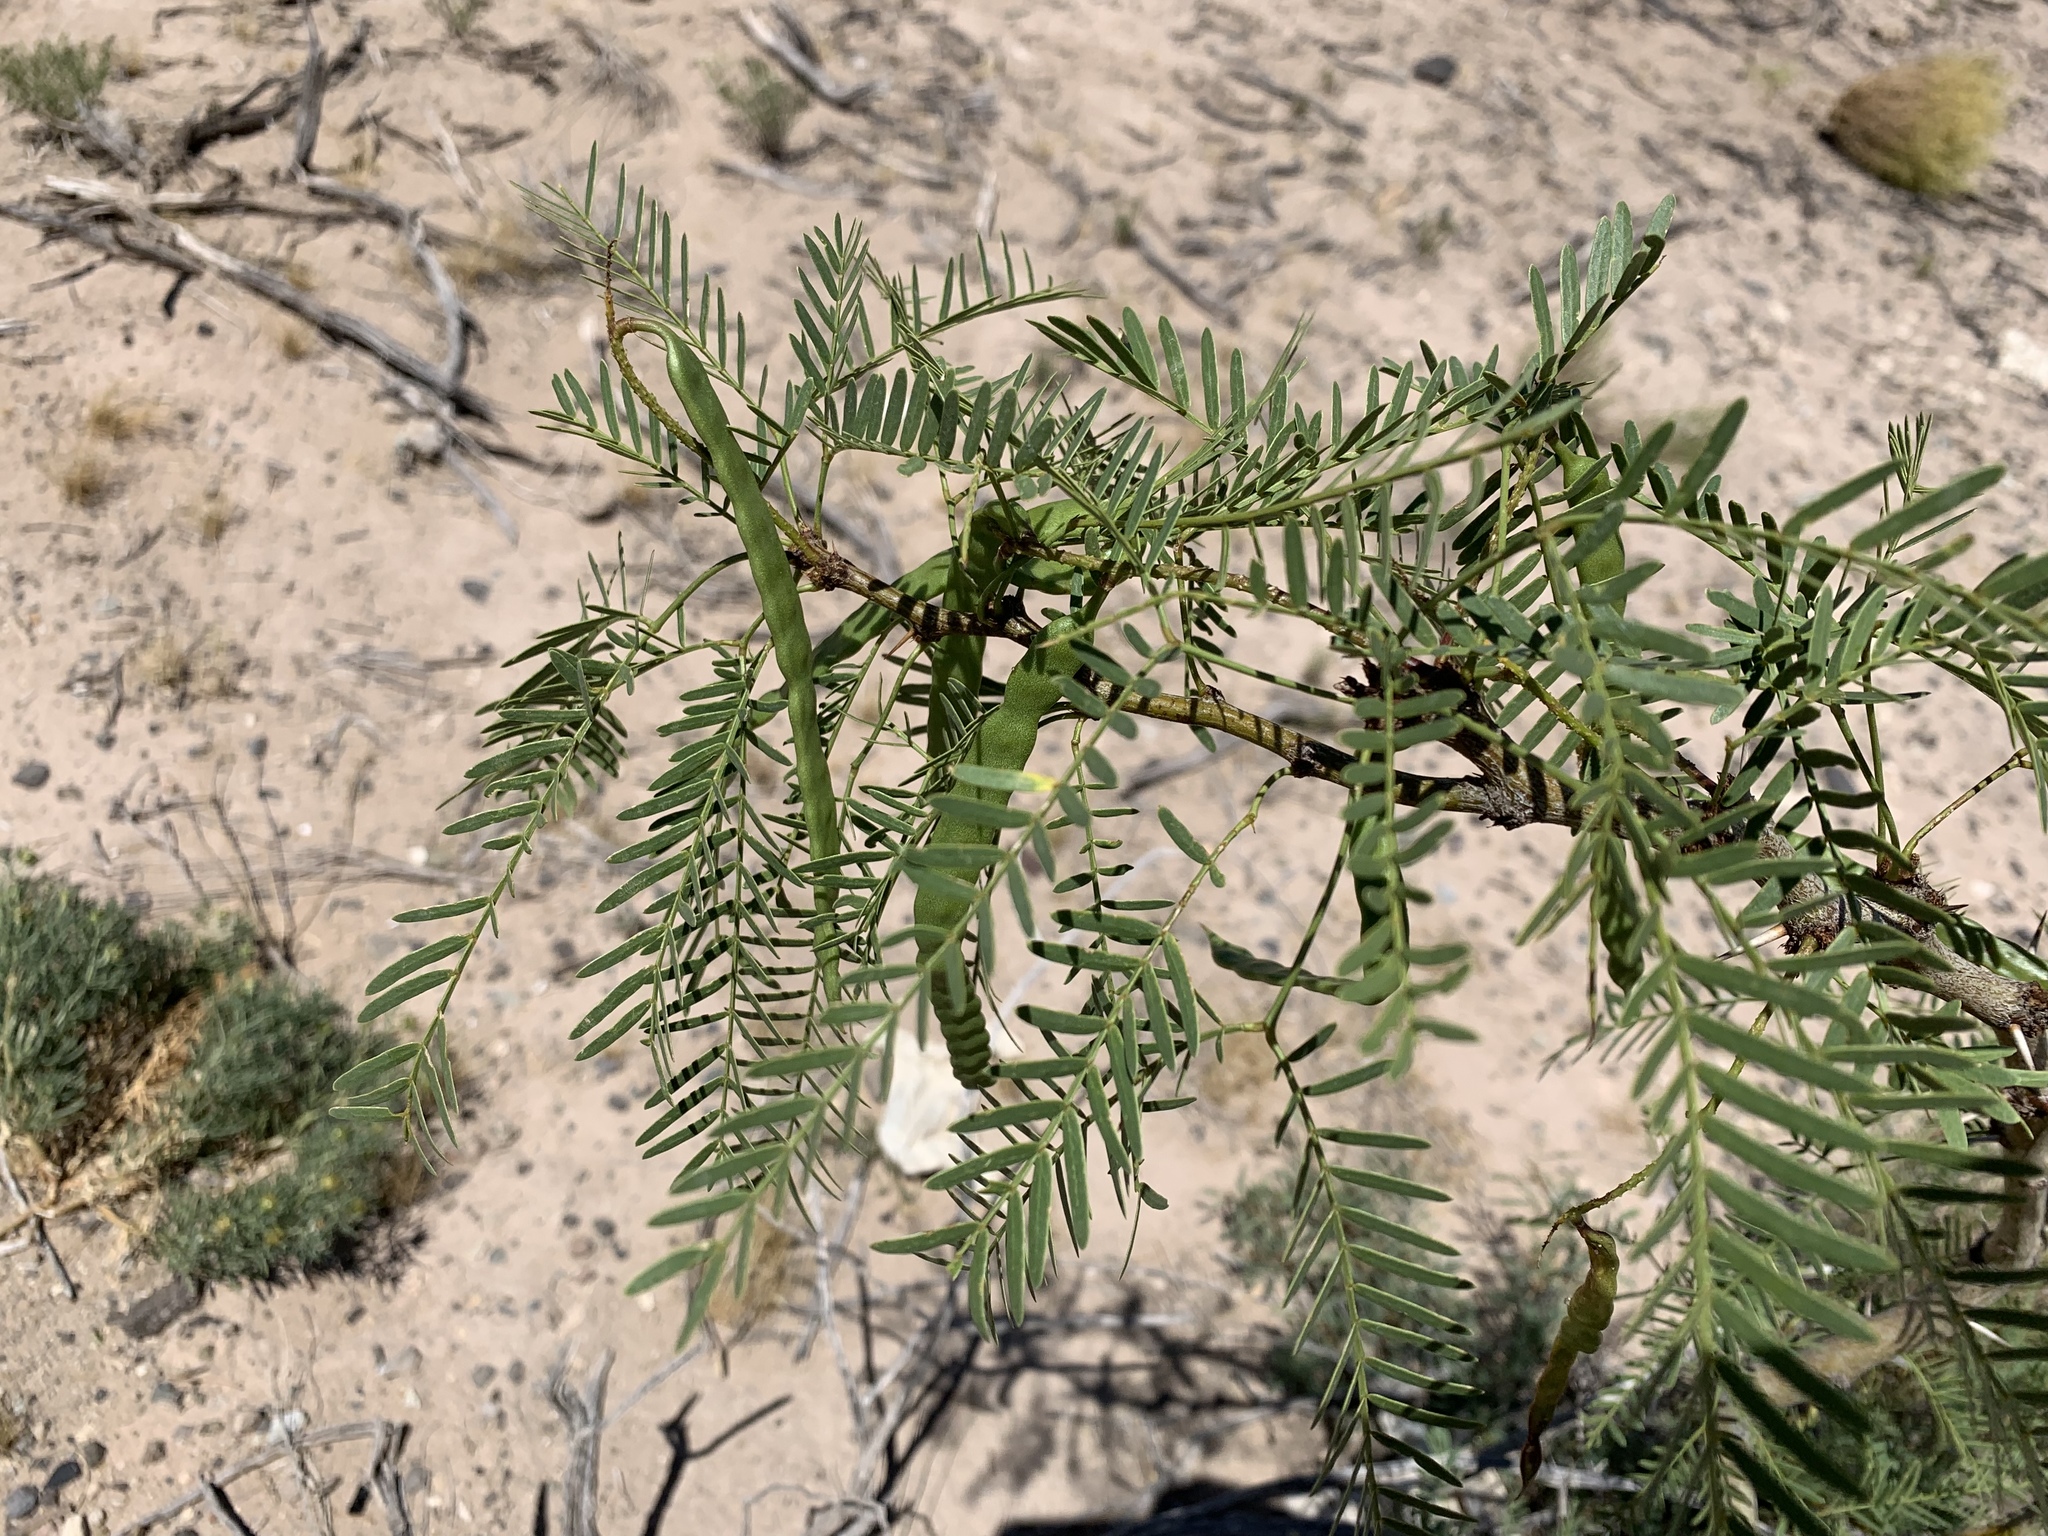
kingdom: Plantae
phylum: Tracheophyta
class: Magnoliopsida
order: Fabales
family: Fabaceae
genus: Prosopis
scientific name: Prosopis glandulosa
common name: Honey mesquite
